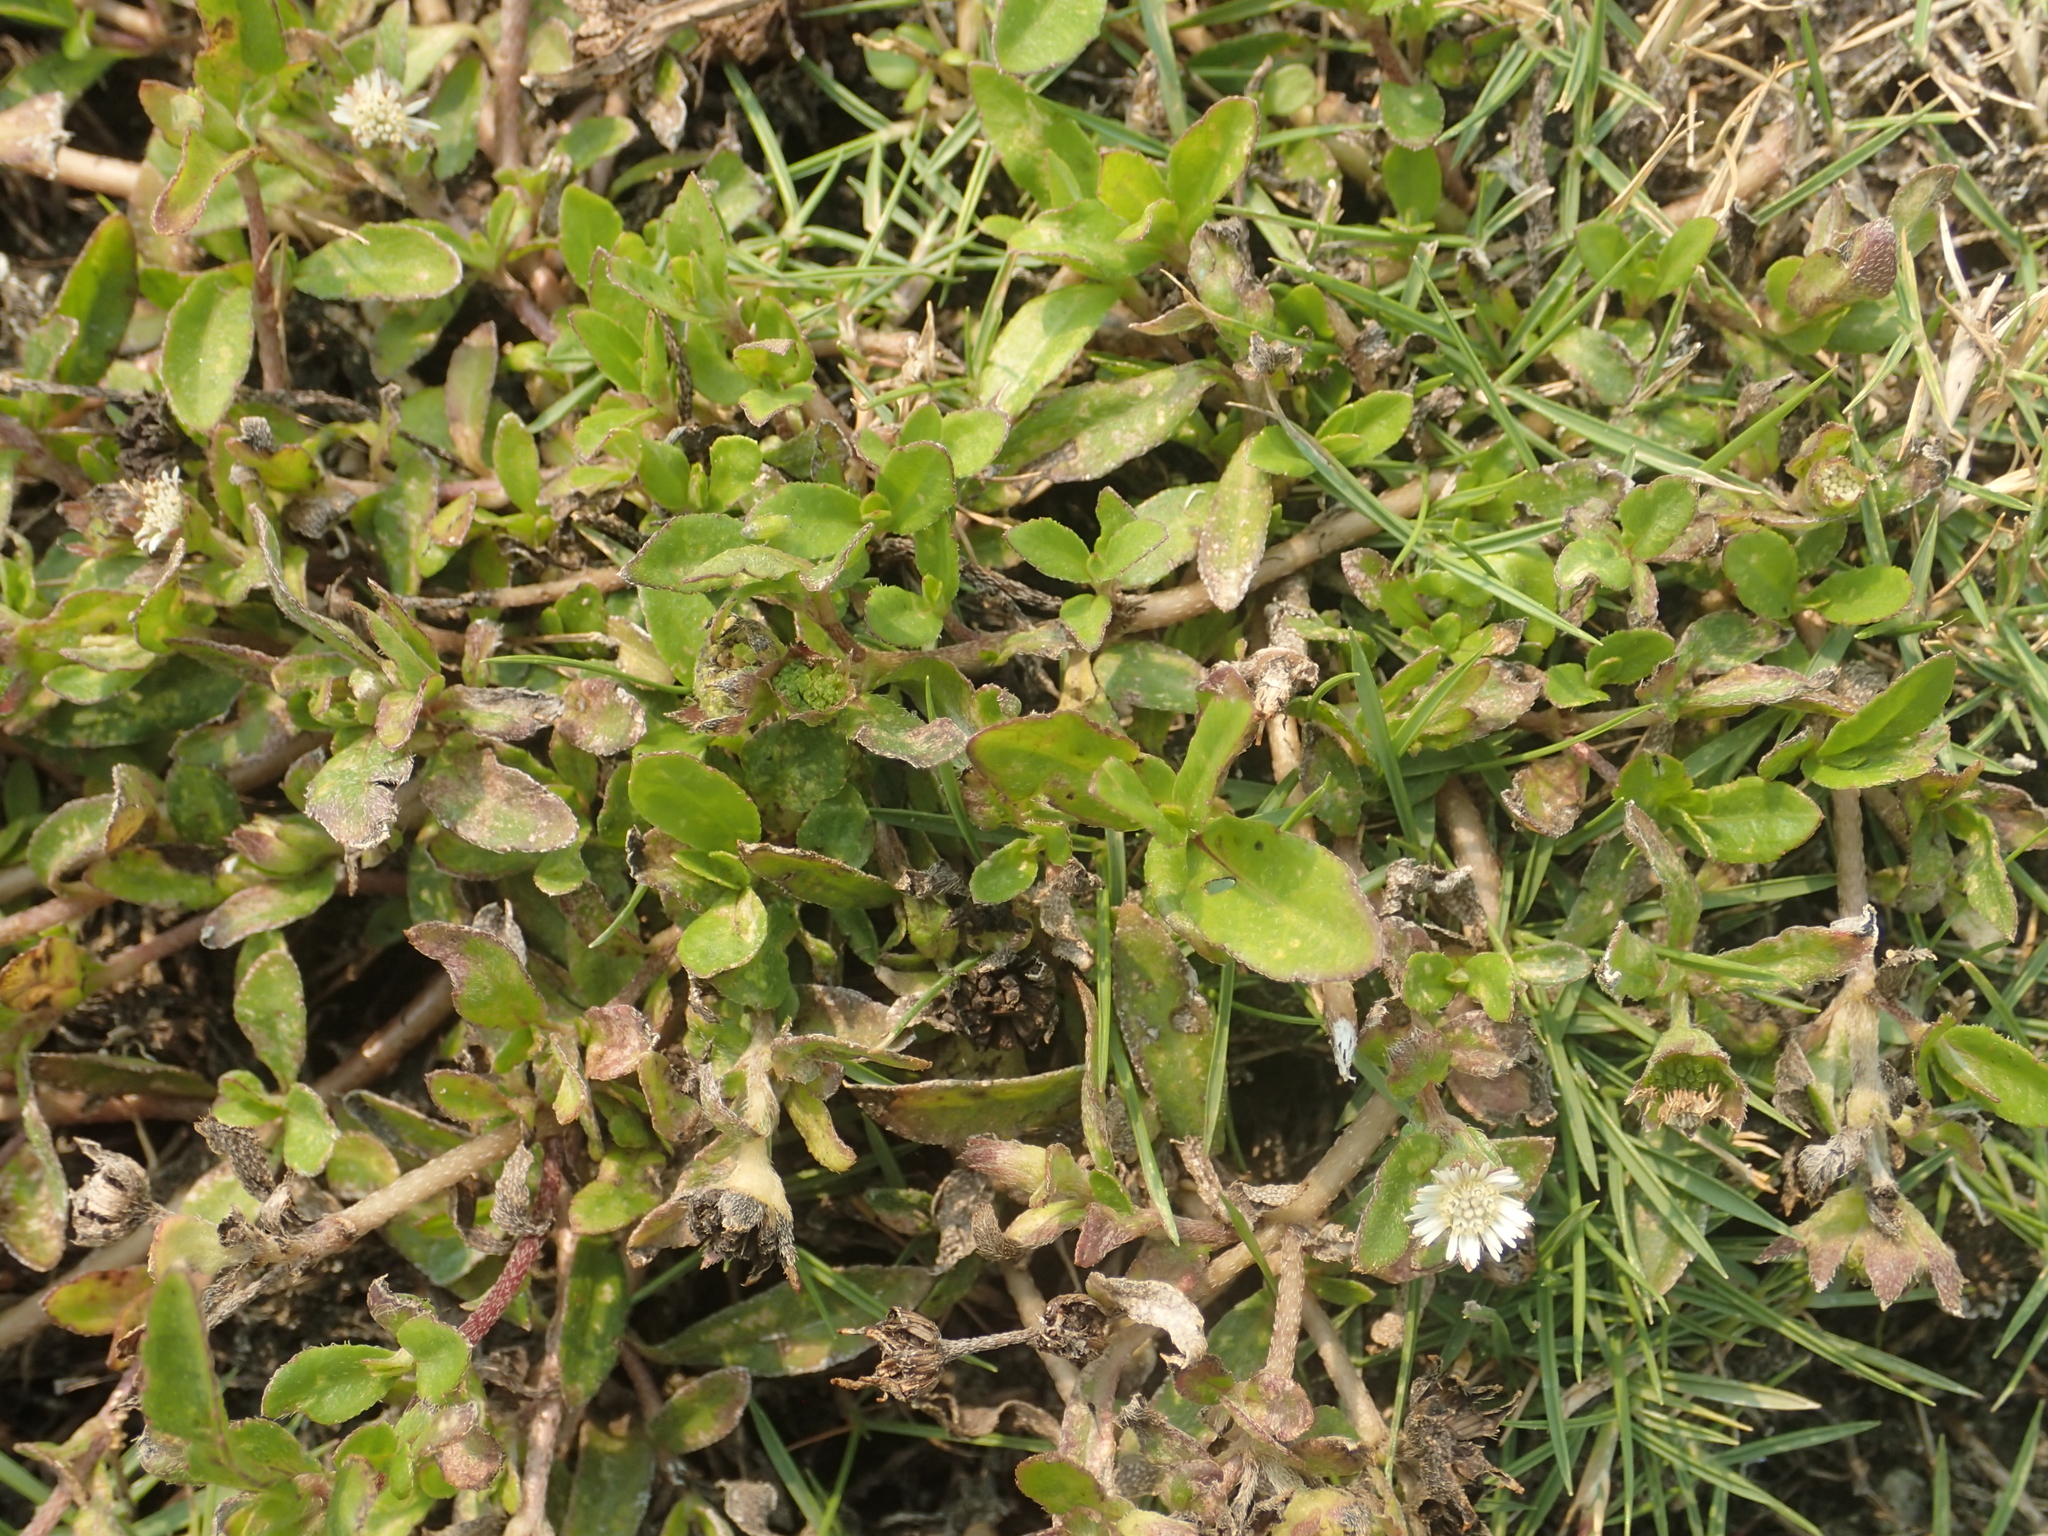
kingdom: Plantae
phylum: Tracheophyta
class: Magnoliopsida
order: Asterales
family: Asteraceae
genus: Eclipta
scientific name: Eclipta prostrata
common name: False daisy
